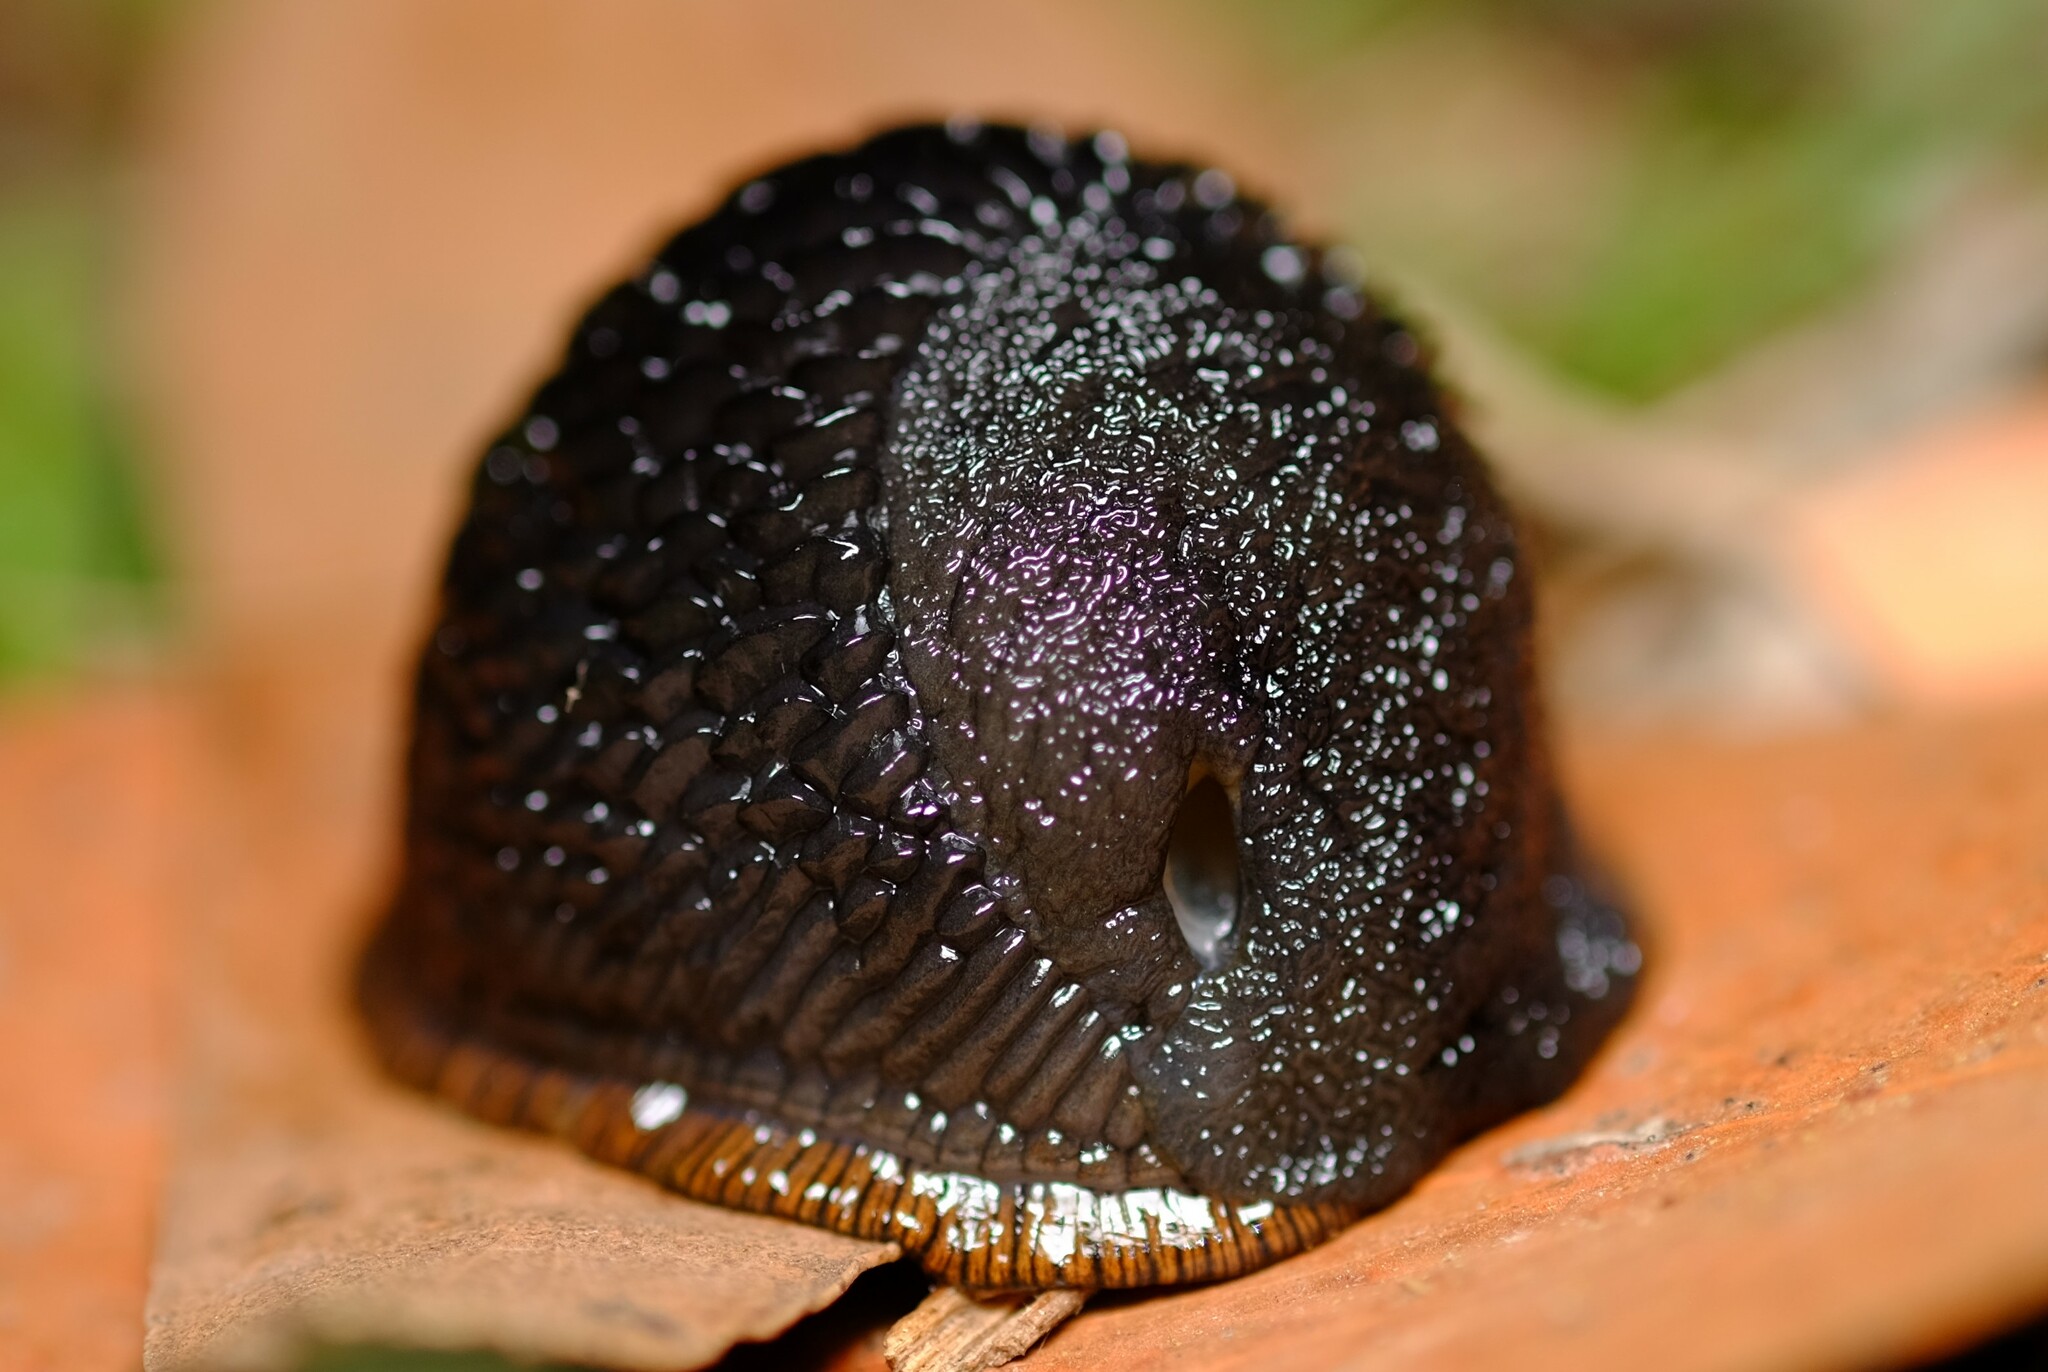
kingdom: Animalia
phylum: Mollusca
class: Gastropoda
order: Stylommatophora
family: Arionidae
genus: Arion
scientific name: Arion ater
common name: Black arion
